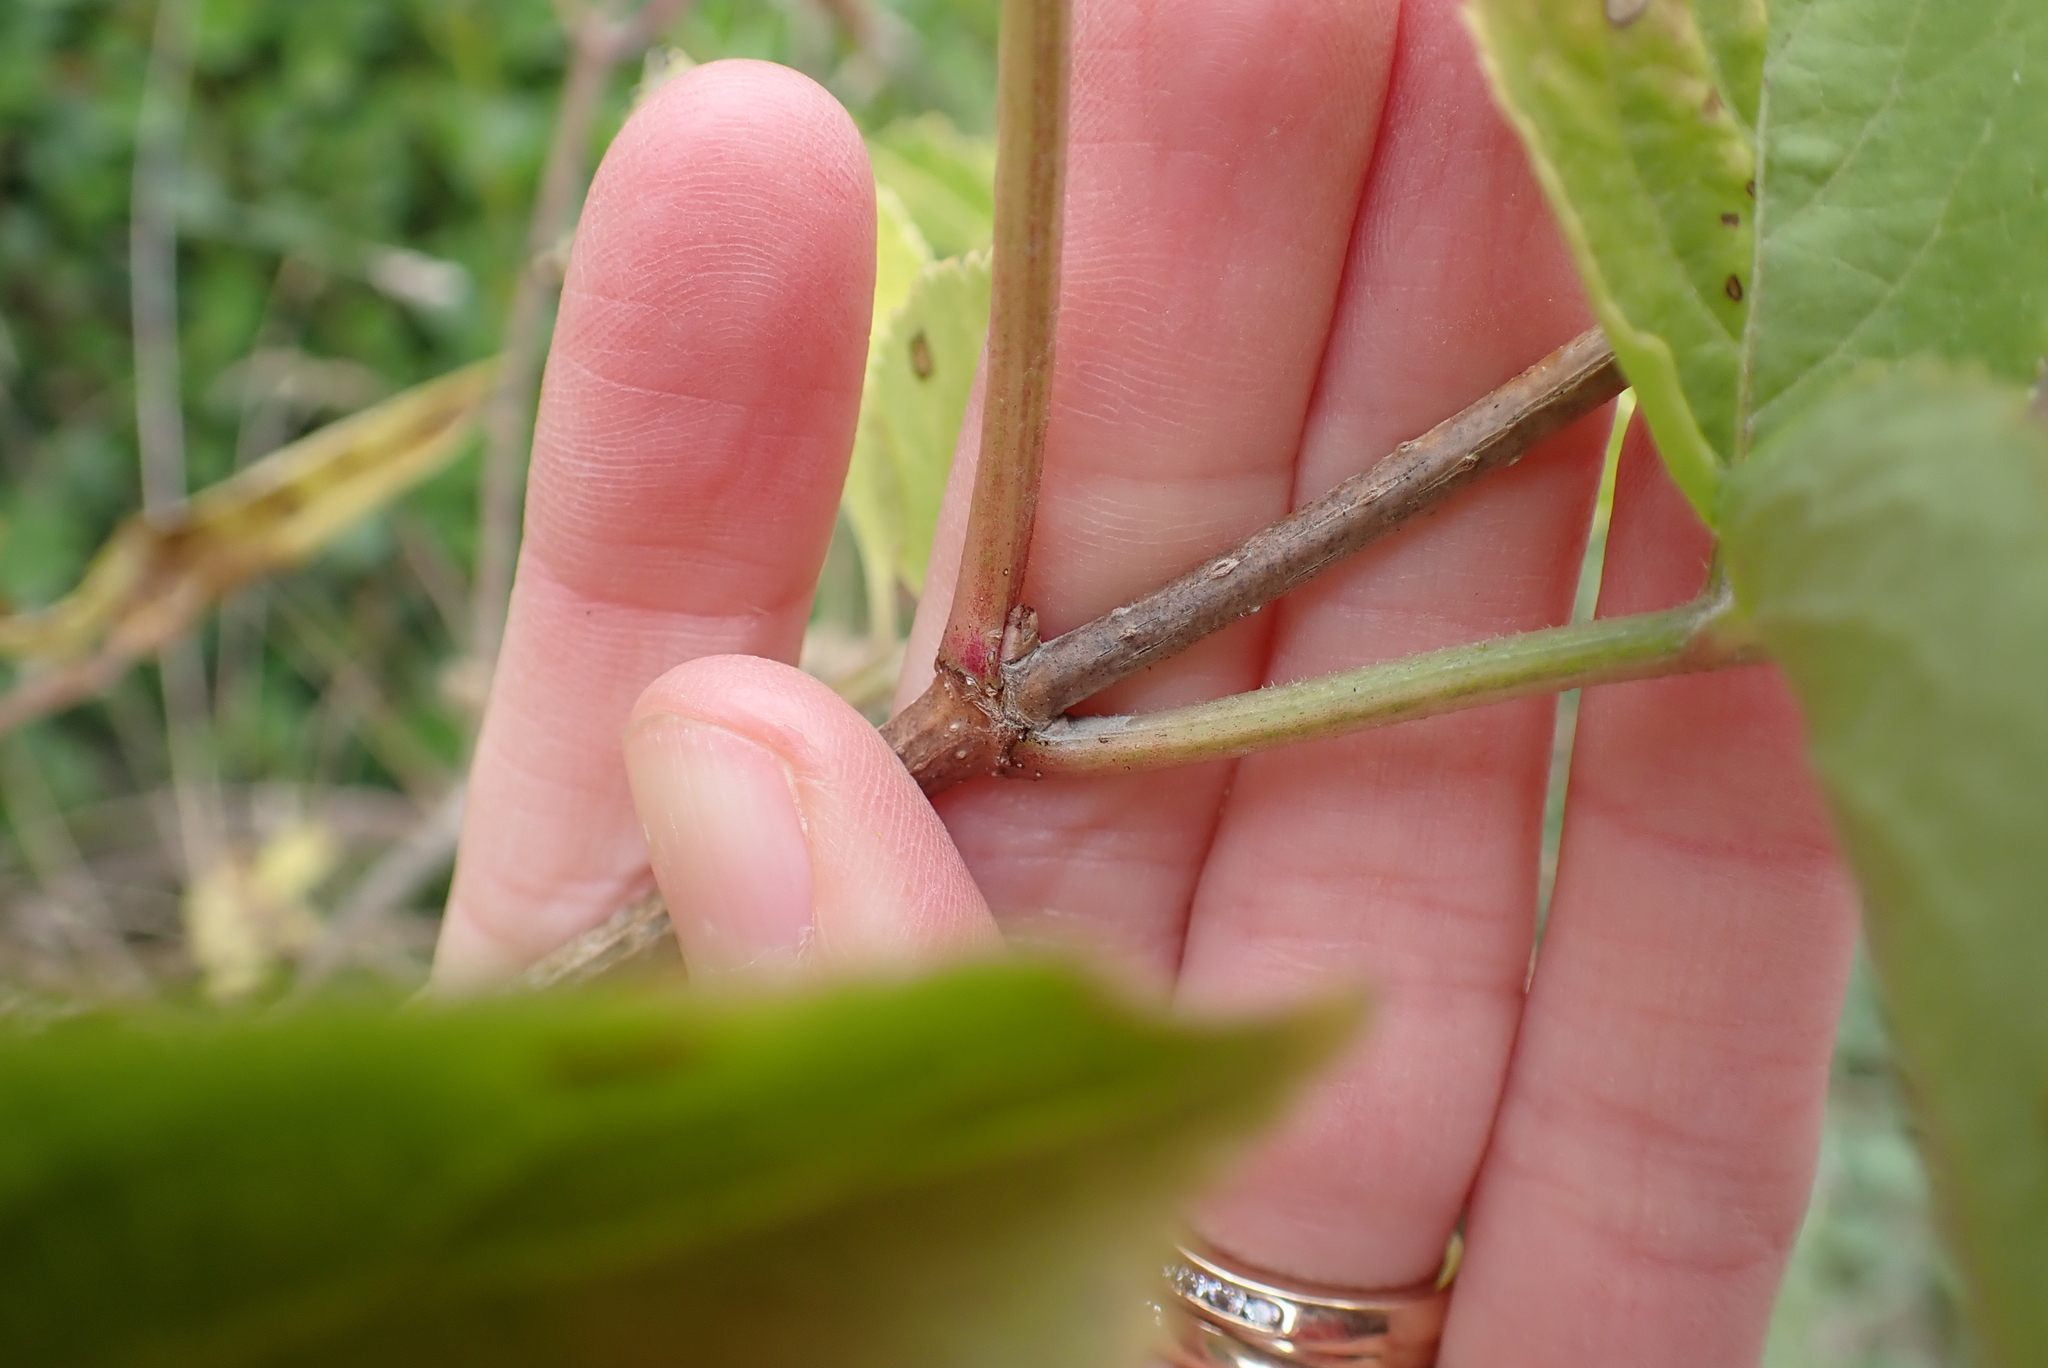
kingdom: Plantae
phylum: Tracheophyta
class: Magnoliopsida
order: Dipsacales
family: Viburnaceae
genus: Sambucus
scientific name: Sambucus nigra
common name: Elder
